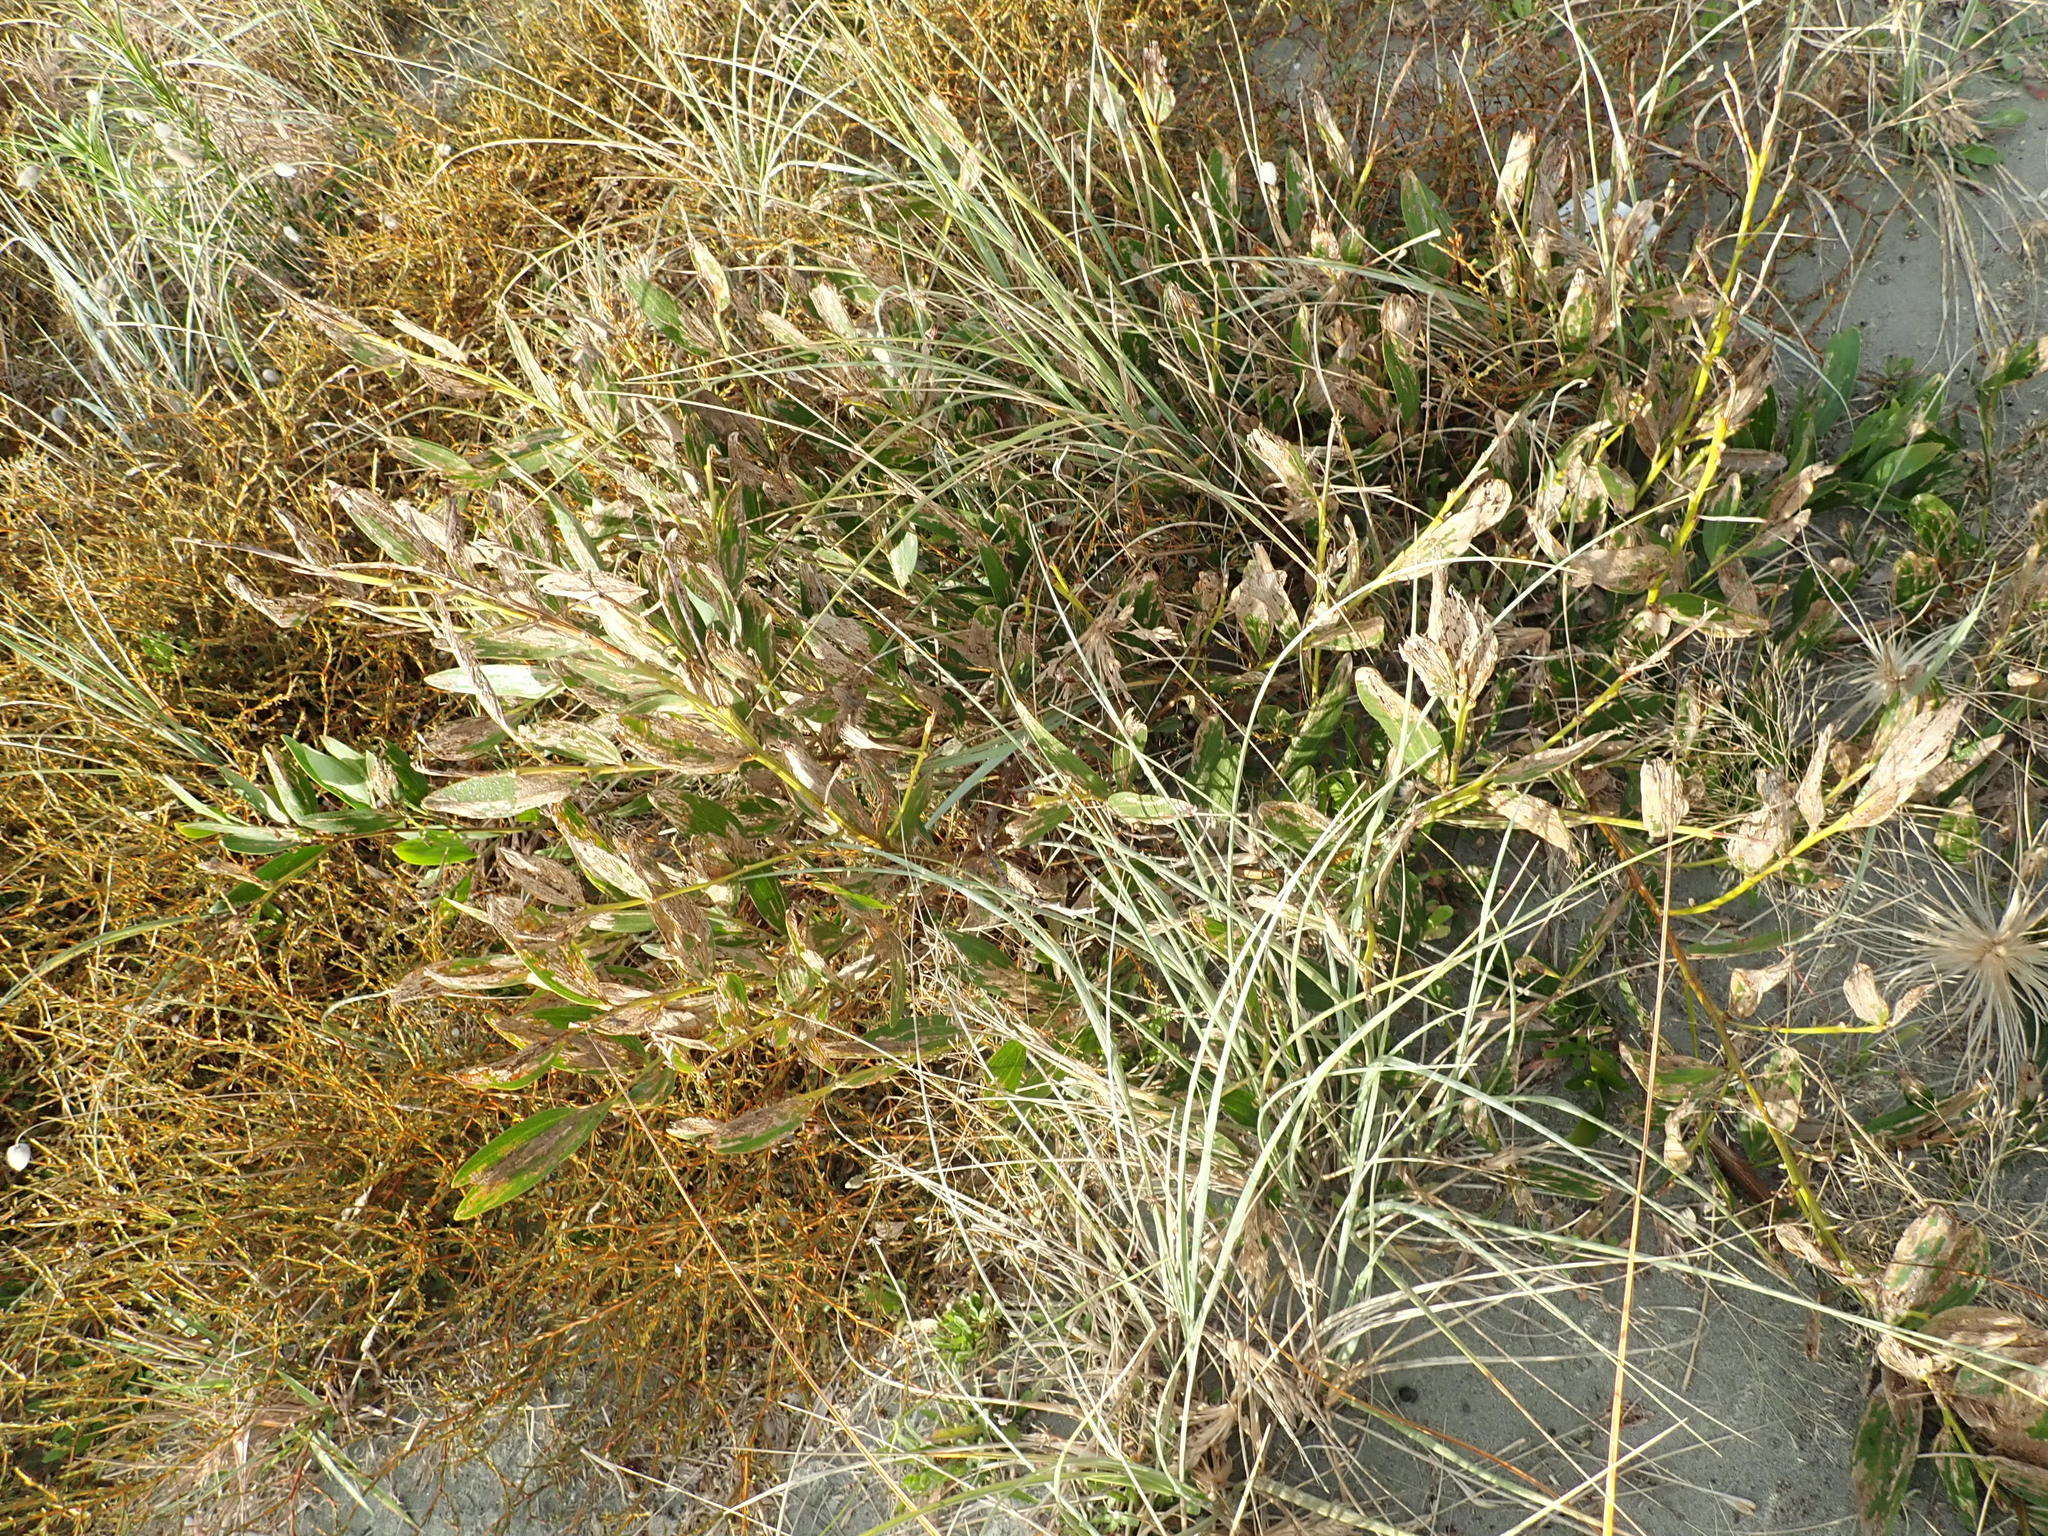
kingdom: Plantae
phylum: Tracheophyta
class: Magnoliopsida
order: Fabales
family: Fabaceae
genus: Acacia
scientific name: Acacia longifolia
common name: Sydney golden wattle
